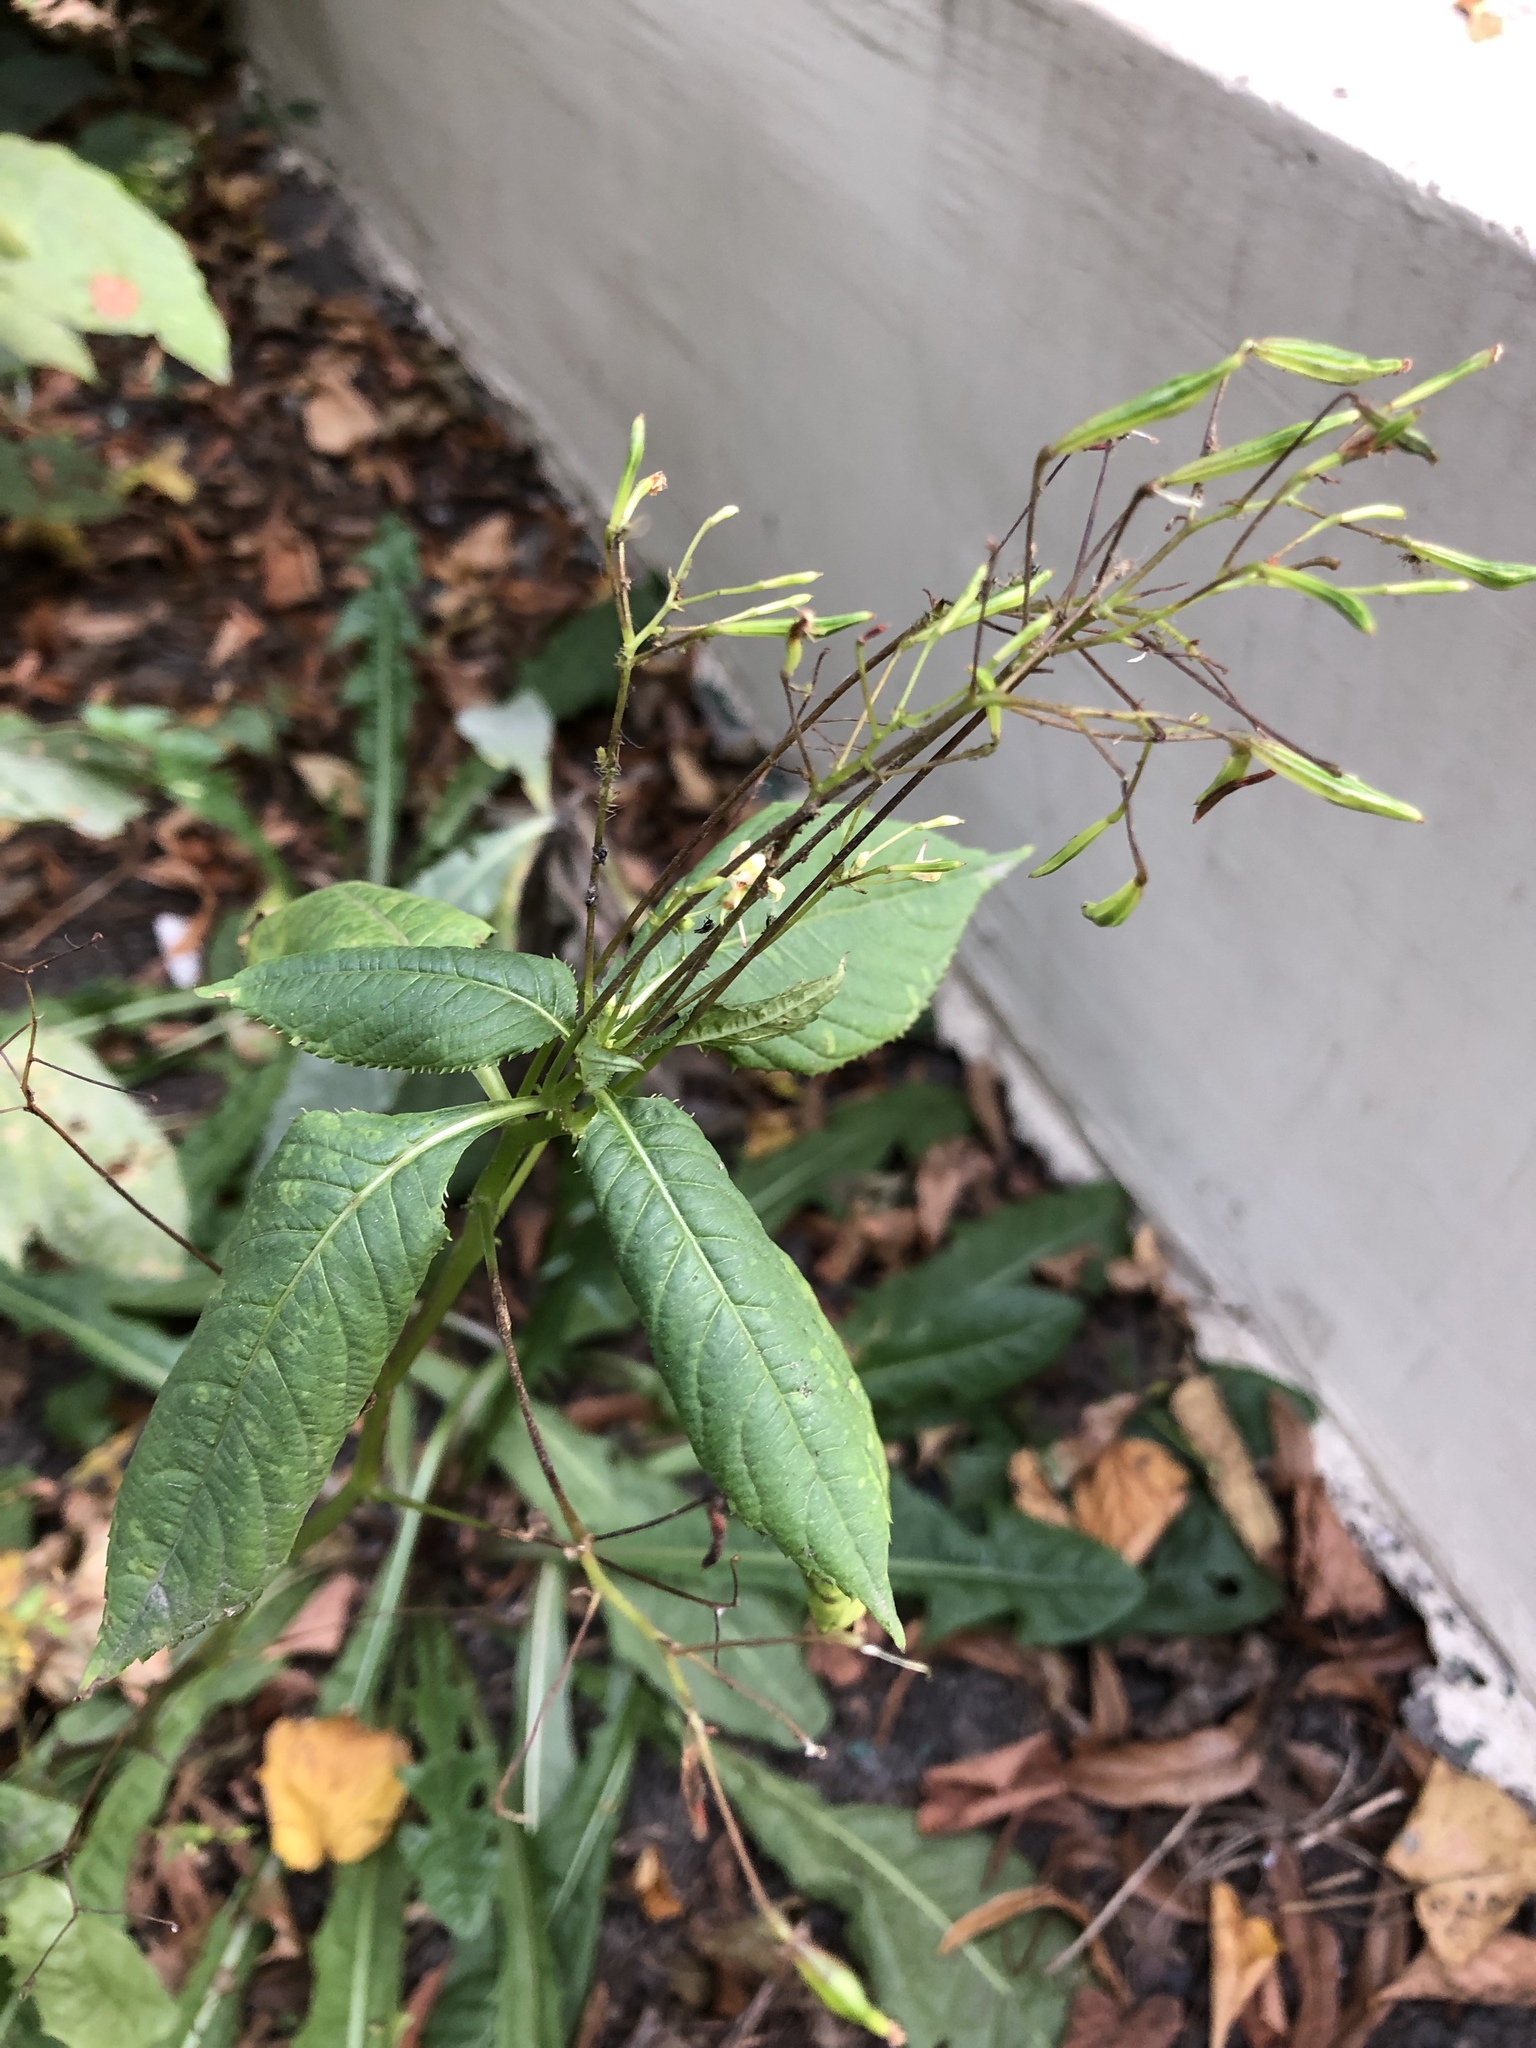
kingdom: Plantae
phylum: Tracheophyta
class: Magnoliopsida
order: Ericales
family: Balsaminaceae
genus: Impatiens
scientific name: Impatiens parviflora
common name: Small balsam
